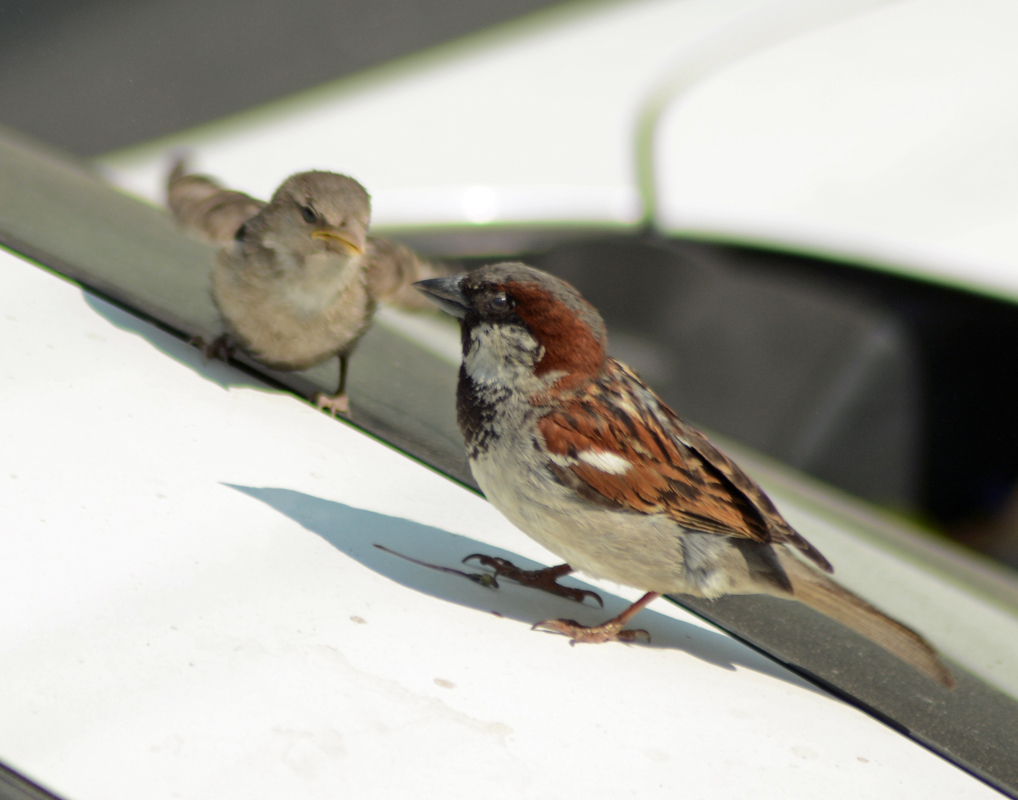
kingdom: Animalia
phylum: Chordata
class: Aves
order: Passeriformes
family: Passeridae
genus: Passer
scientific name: Passer domesticus
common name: House sparrow
